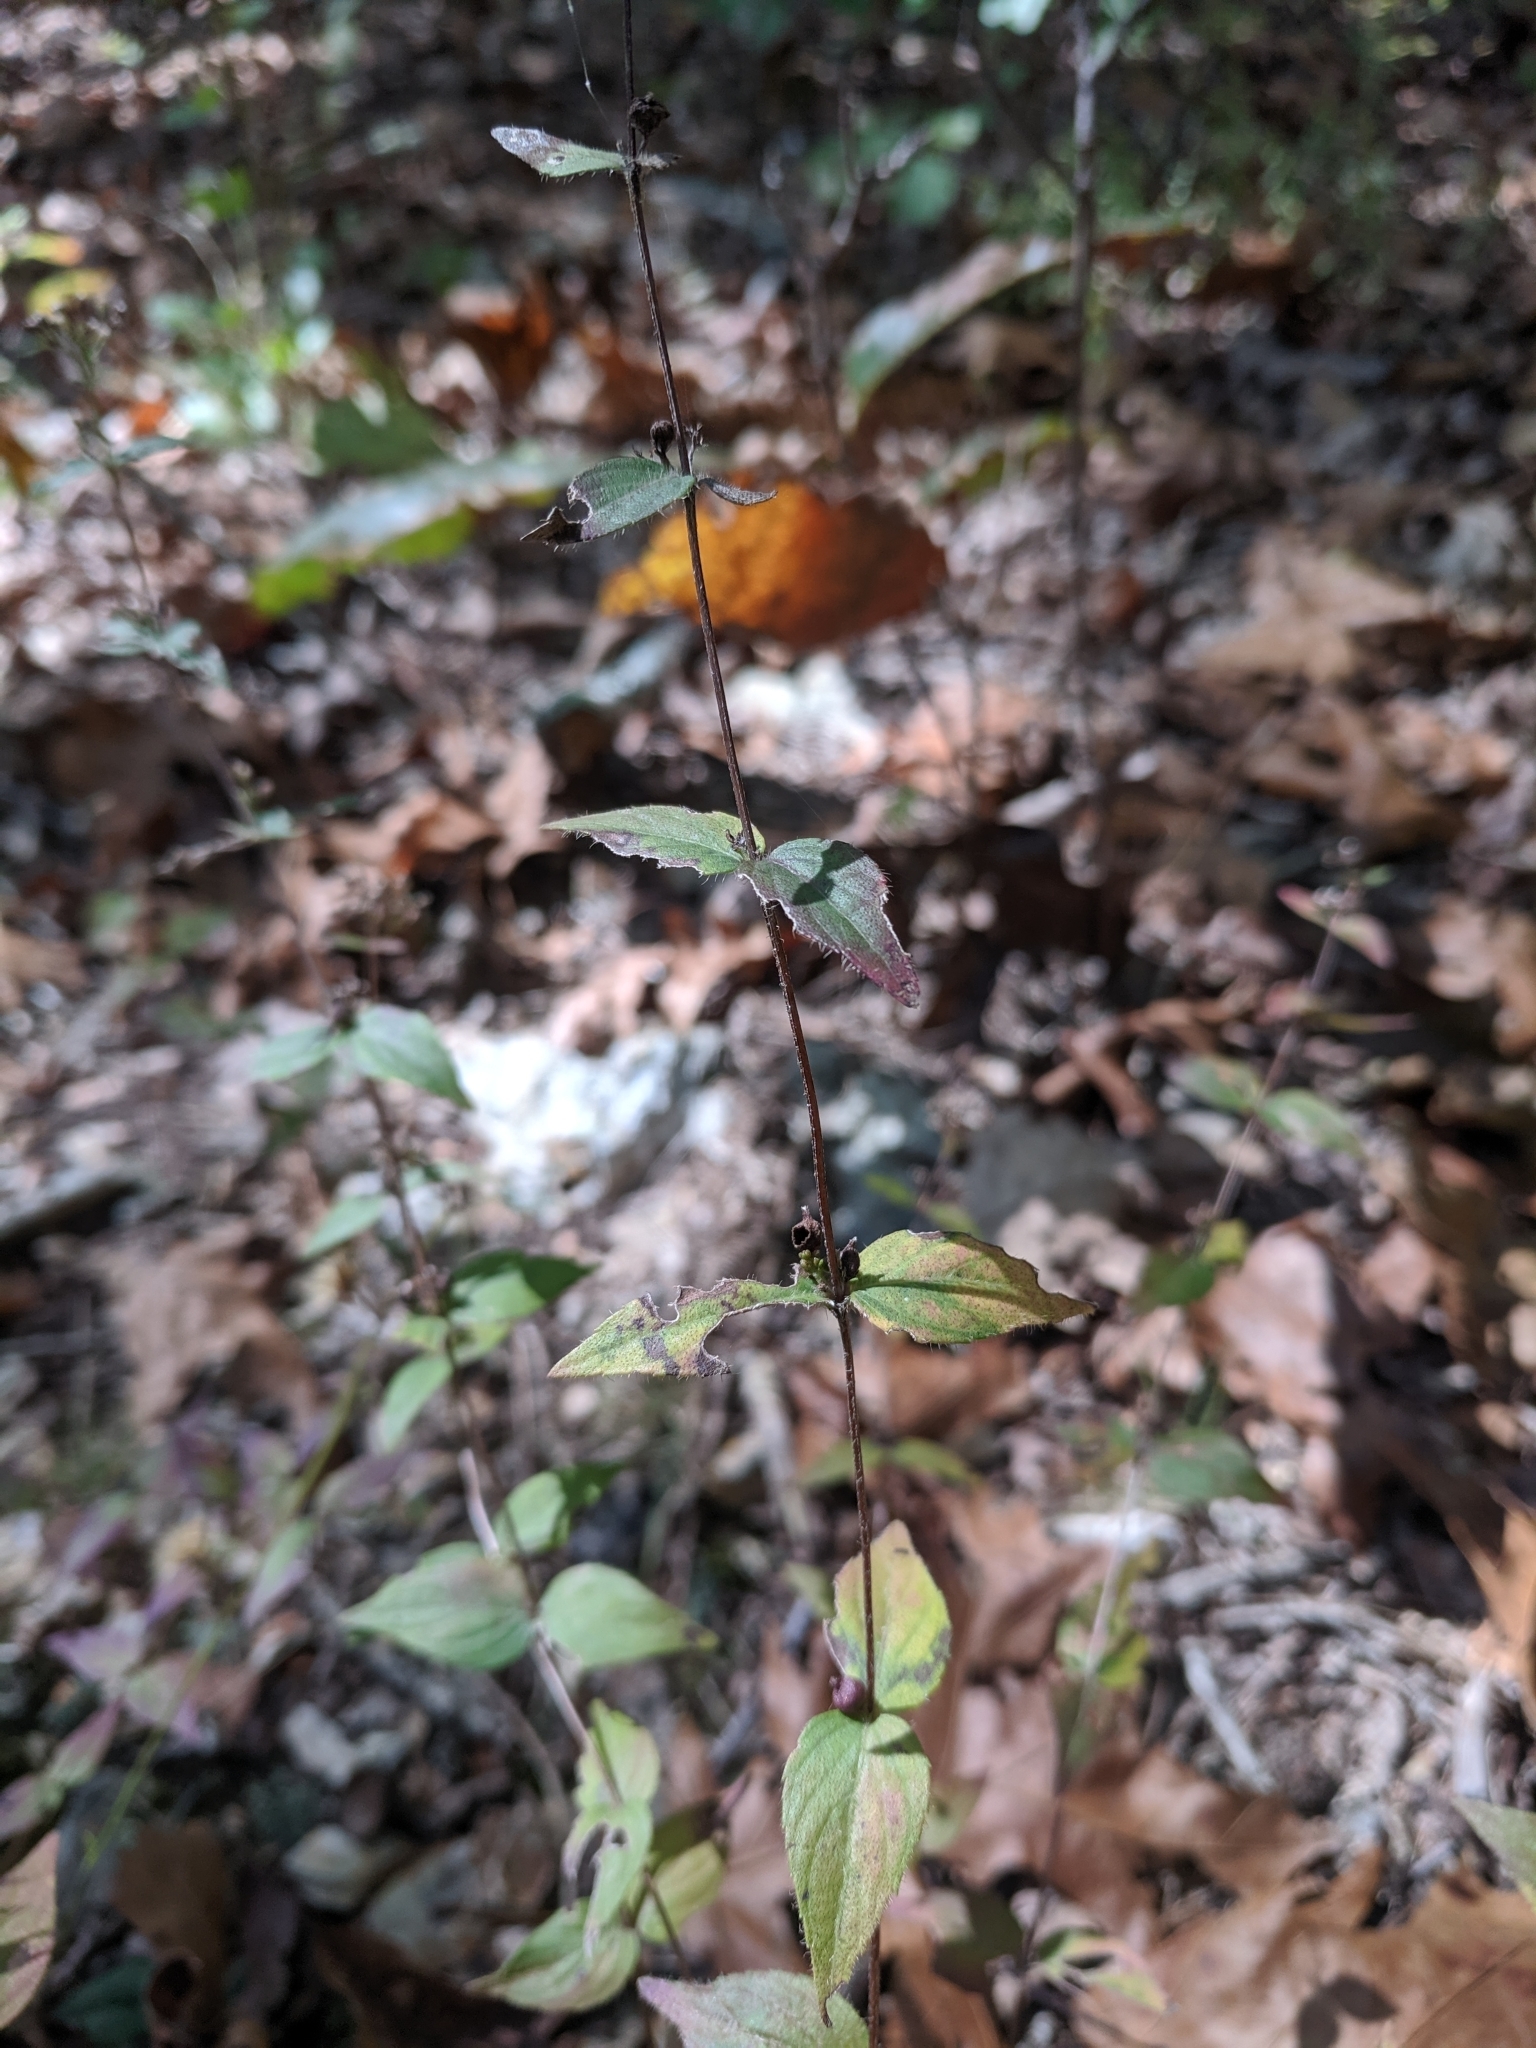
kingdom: Plantae
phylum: Tracheophyta
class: Magnoliopsida
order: Lamiales
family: Lamiaceae
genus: Cunila
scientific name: Cunila origanoides
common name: American dittany
